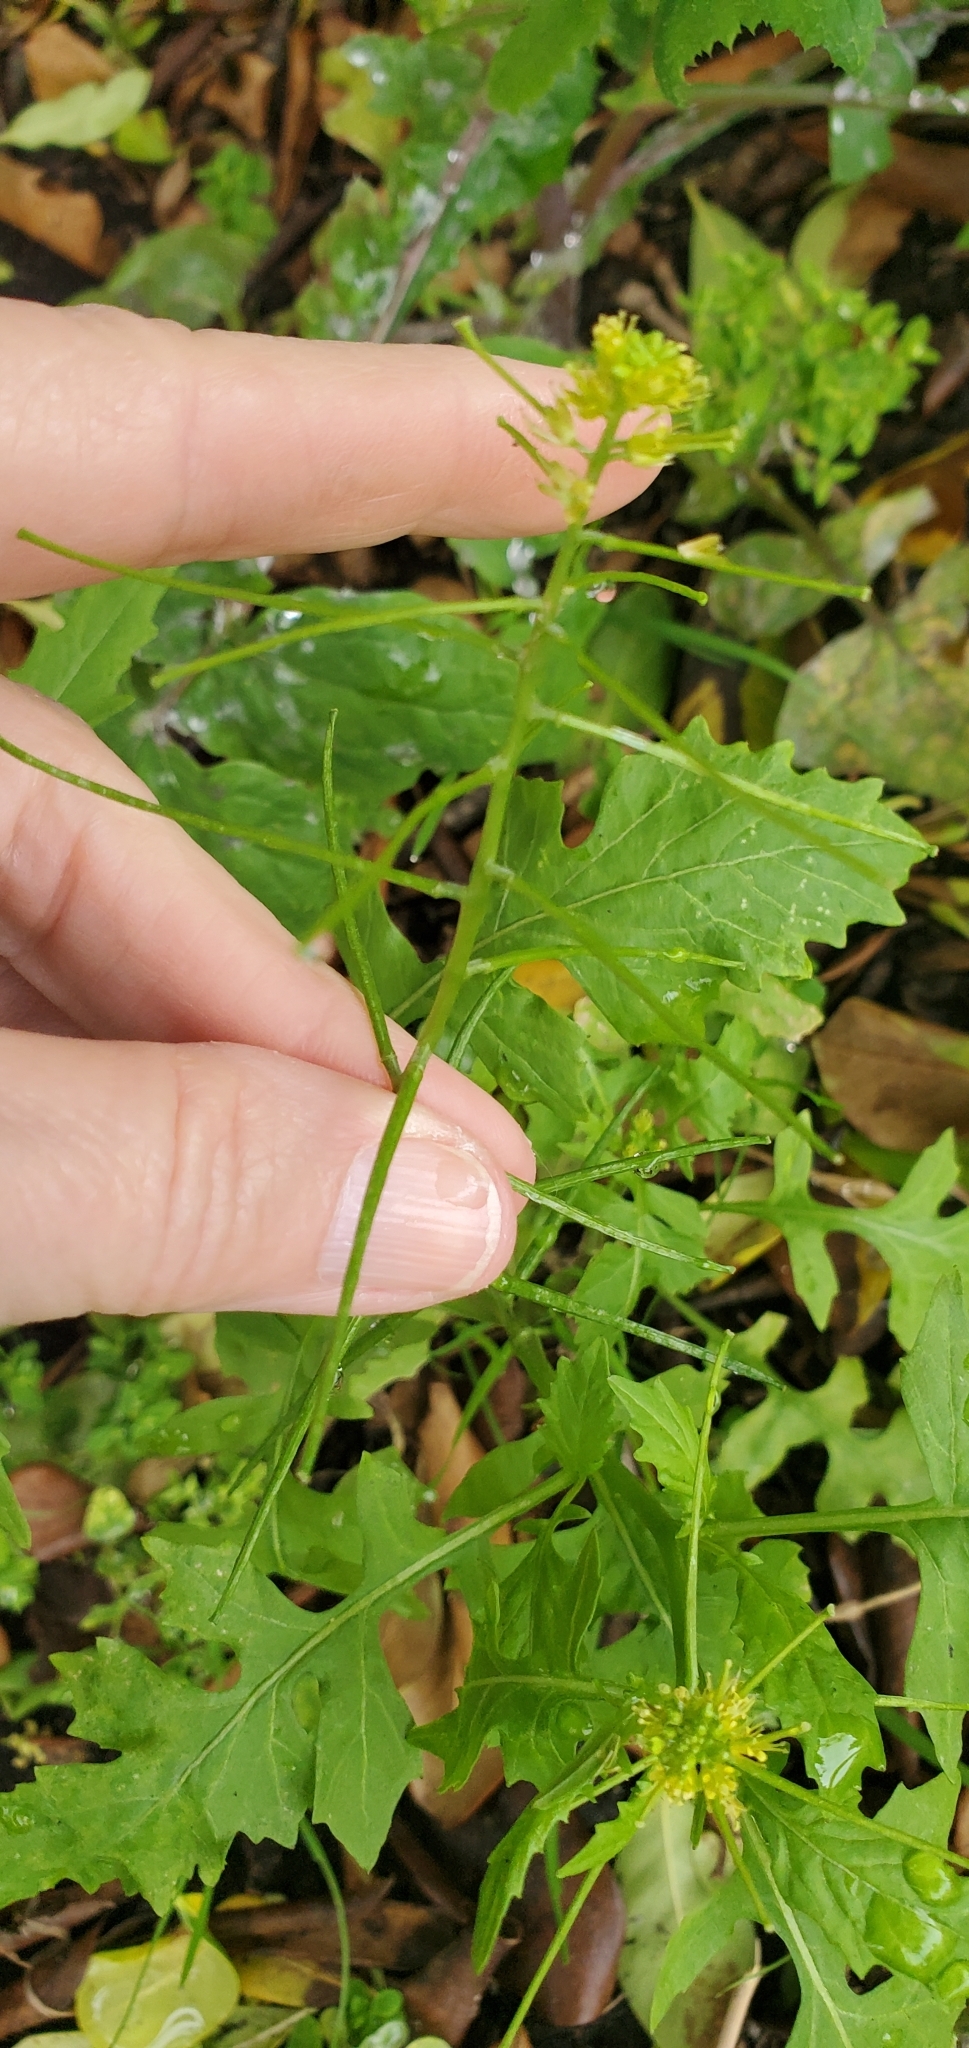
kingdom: Plantae
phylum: Tracheophyta
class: Magnoliopsida
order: Brassicales
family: Brassicaceae
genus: Sisymbrium
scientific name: Sisymbrium erysimoides
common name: French rocket
